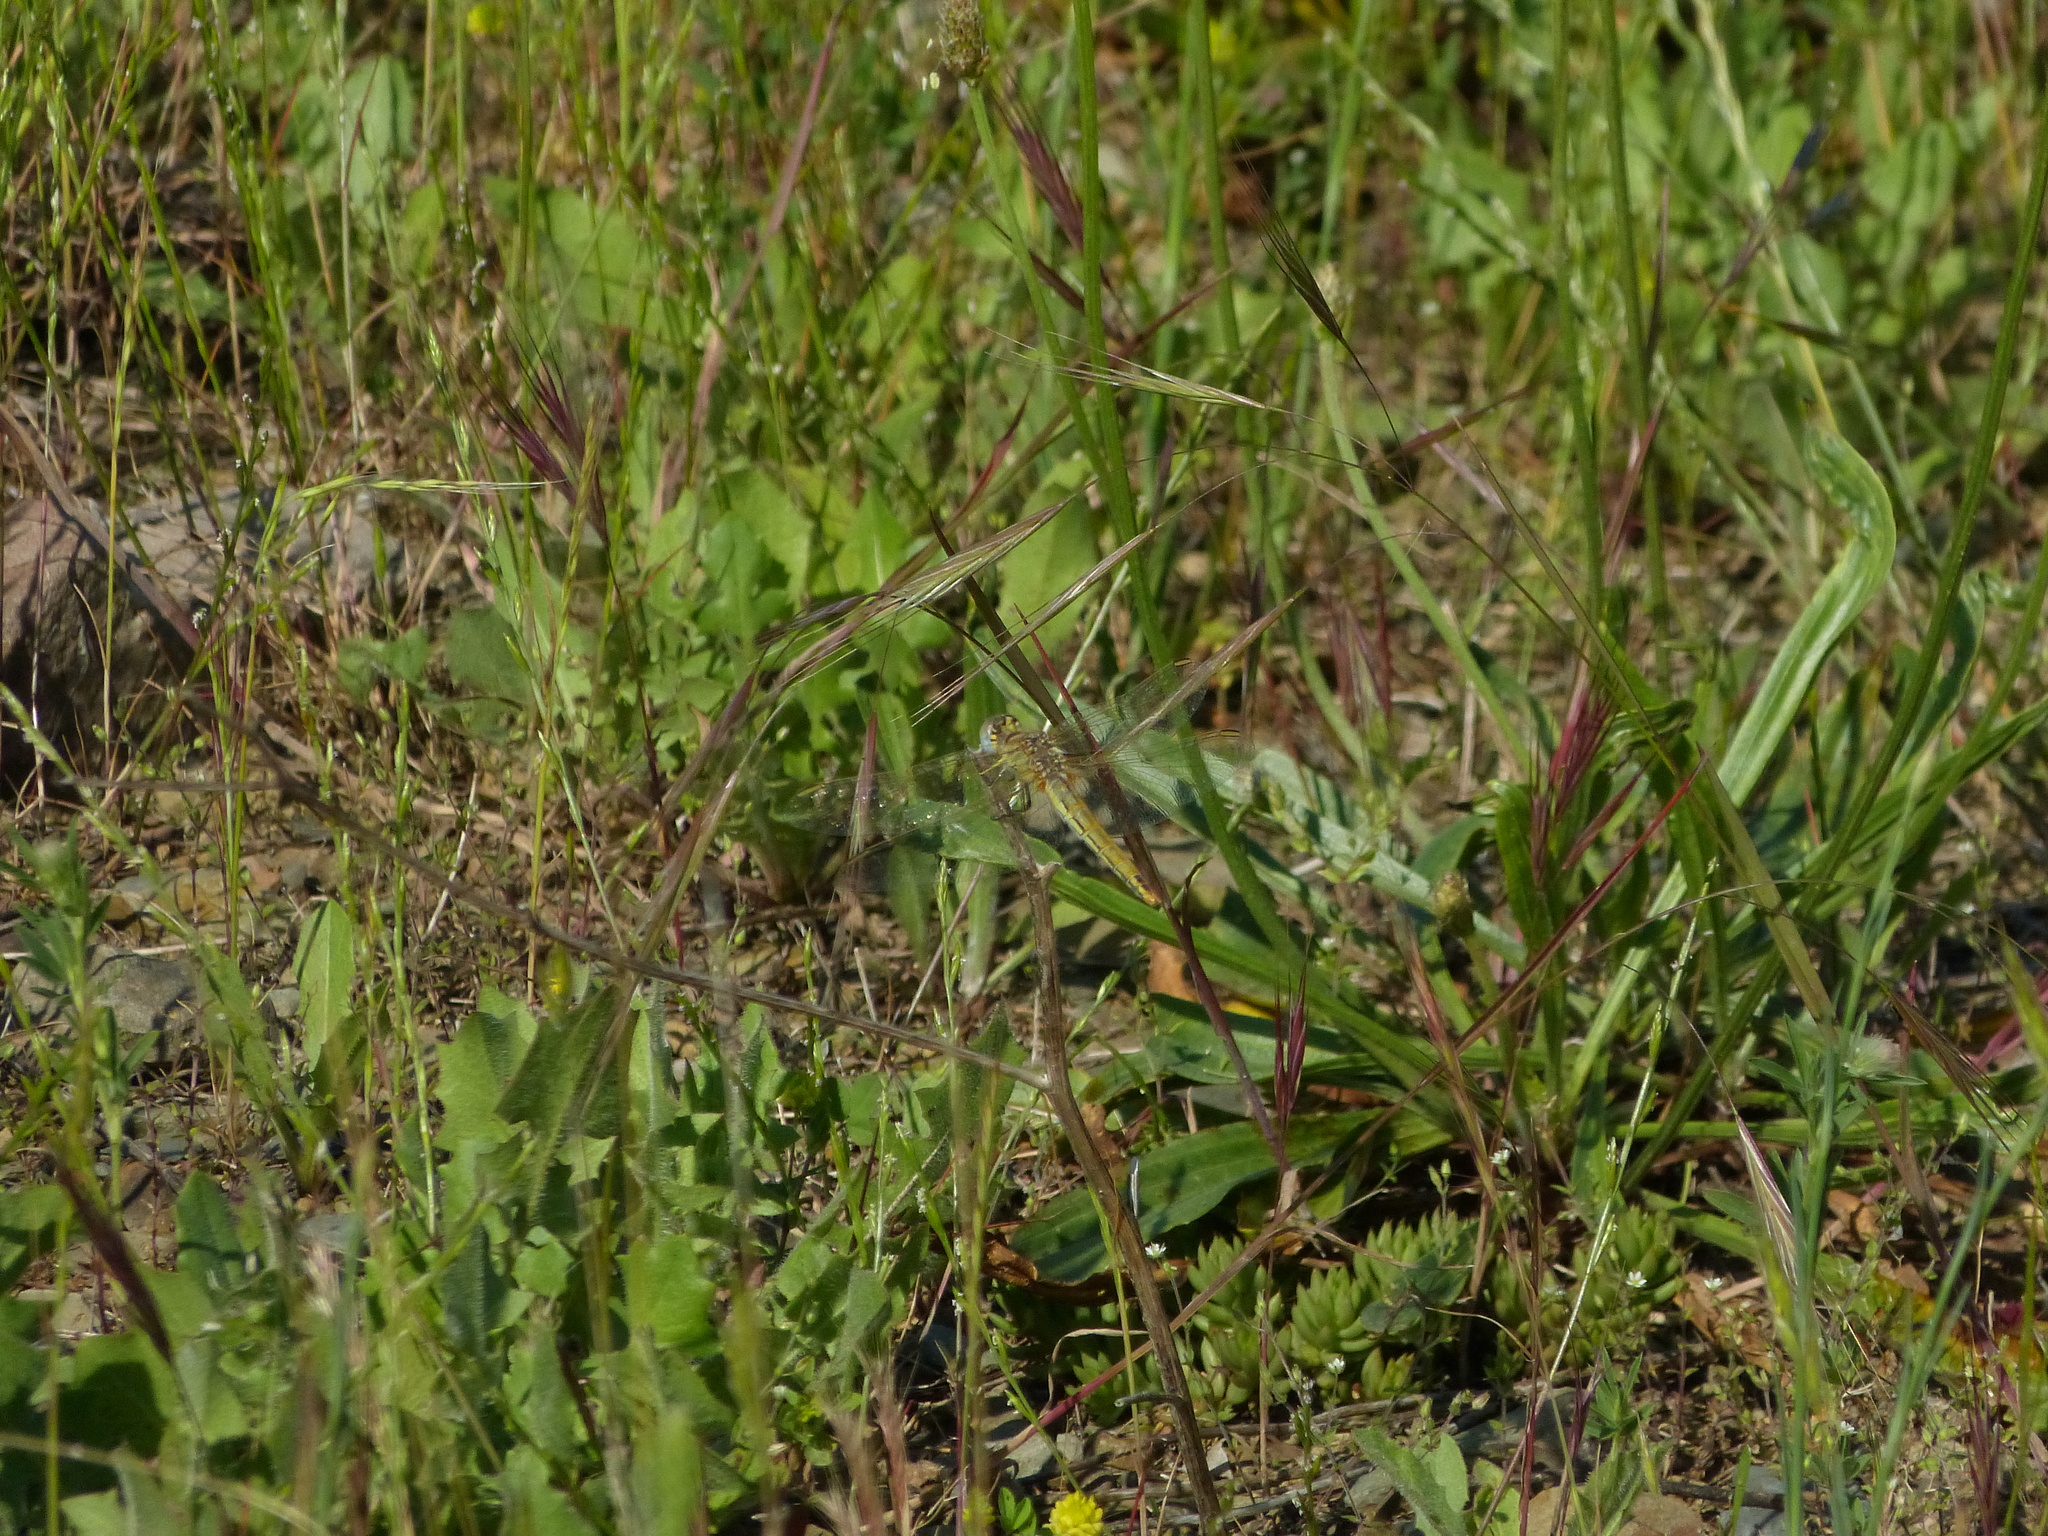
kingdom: Animalia
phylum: Arthropoda
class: Insecta
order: Odonata
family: Libellulidae
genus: Sympetrum
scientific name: Sympetrum fonscolombii
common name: Red-veined darter
